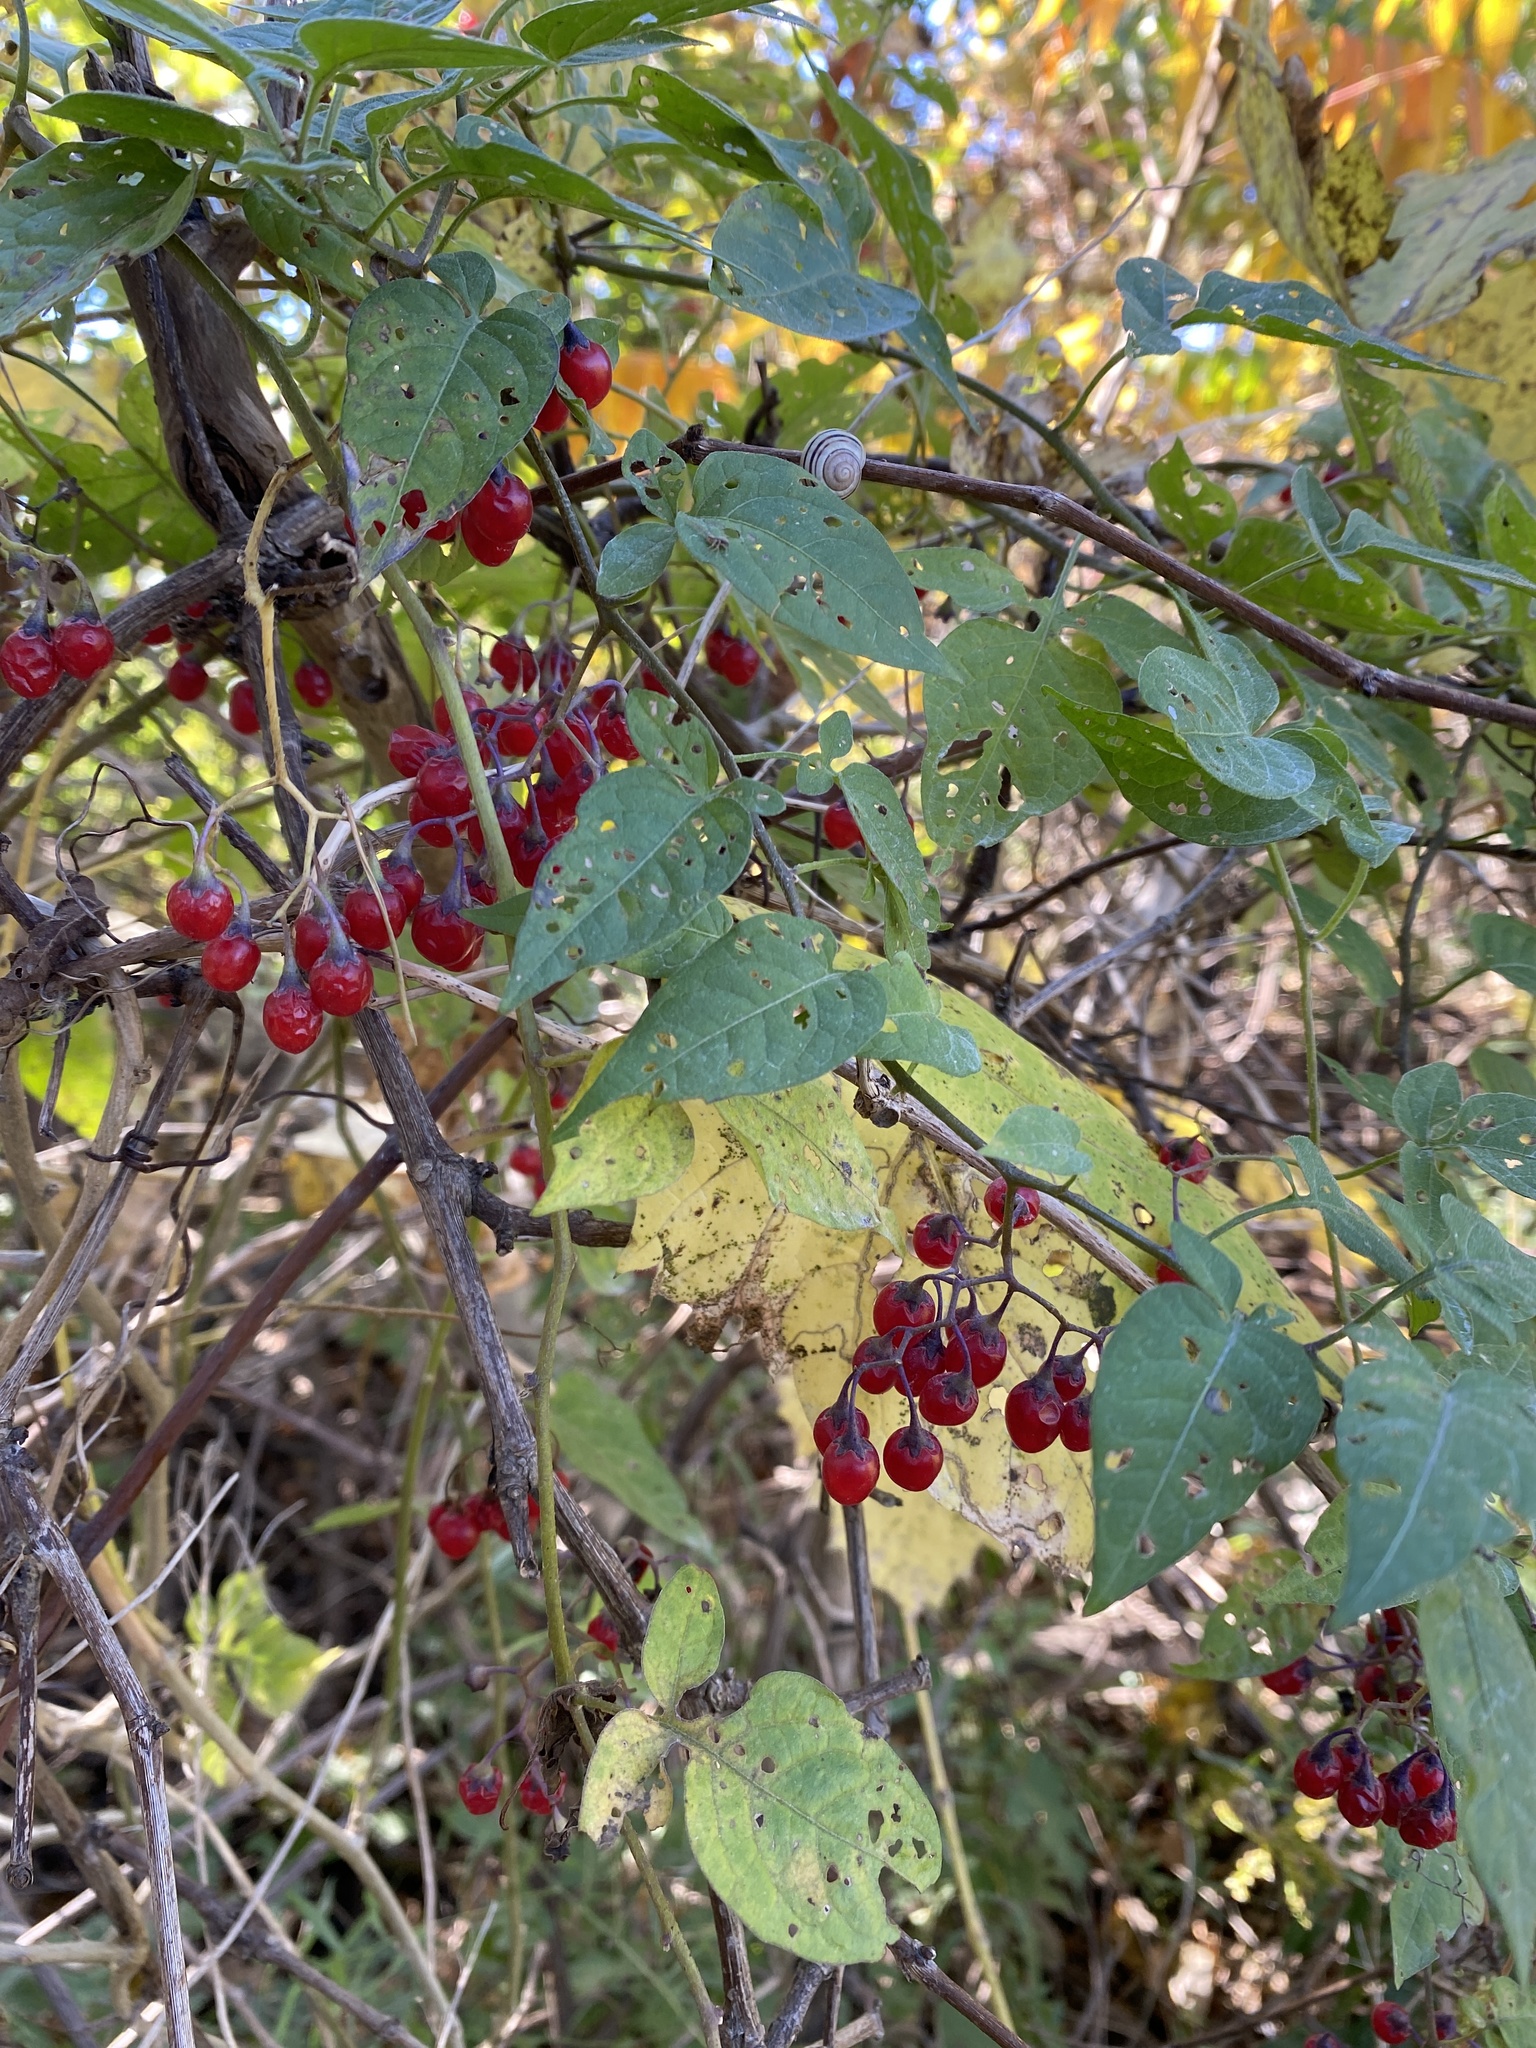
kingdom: Plantae
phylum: Tracheophyta
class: Magnoliopsida
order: Solanales
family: Solanaceae
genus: Solanum
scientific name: Solanum dulcamara
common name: Climbing nightshade
